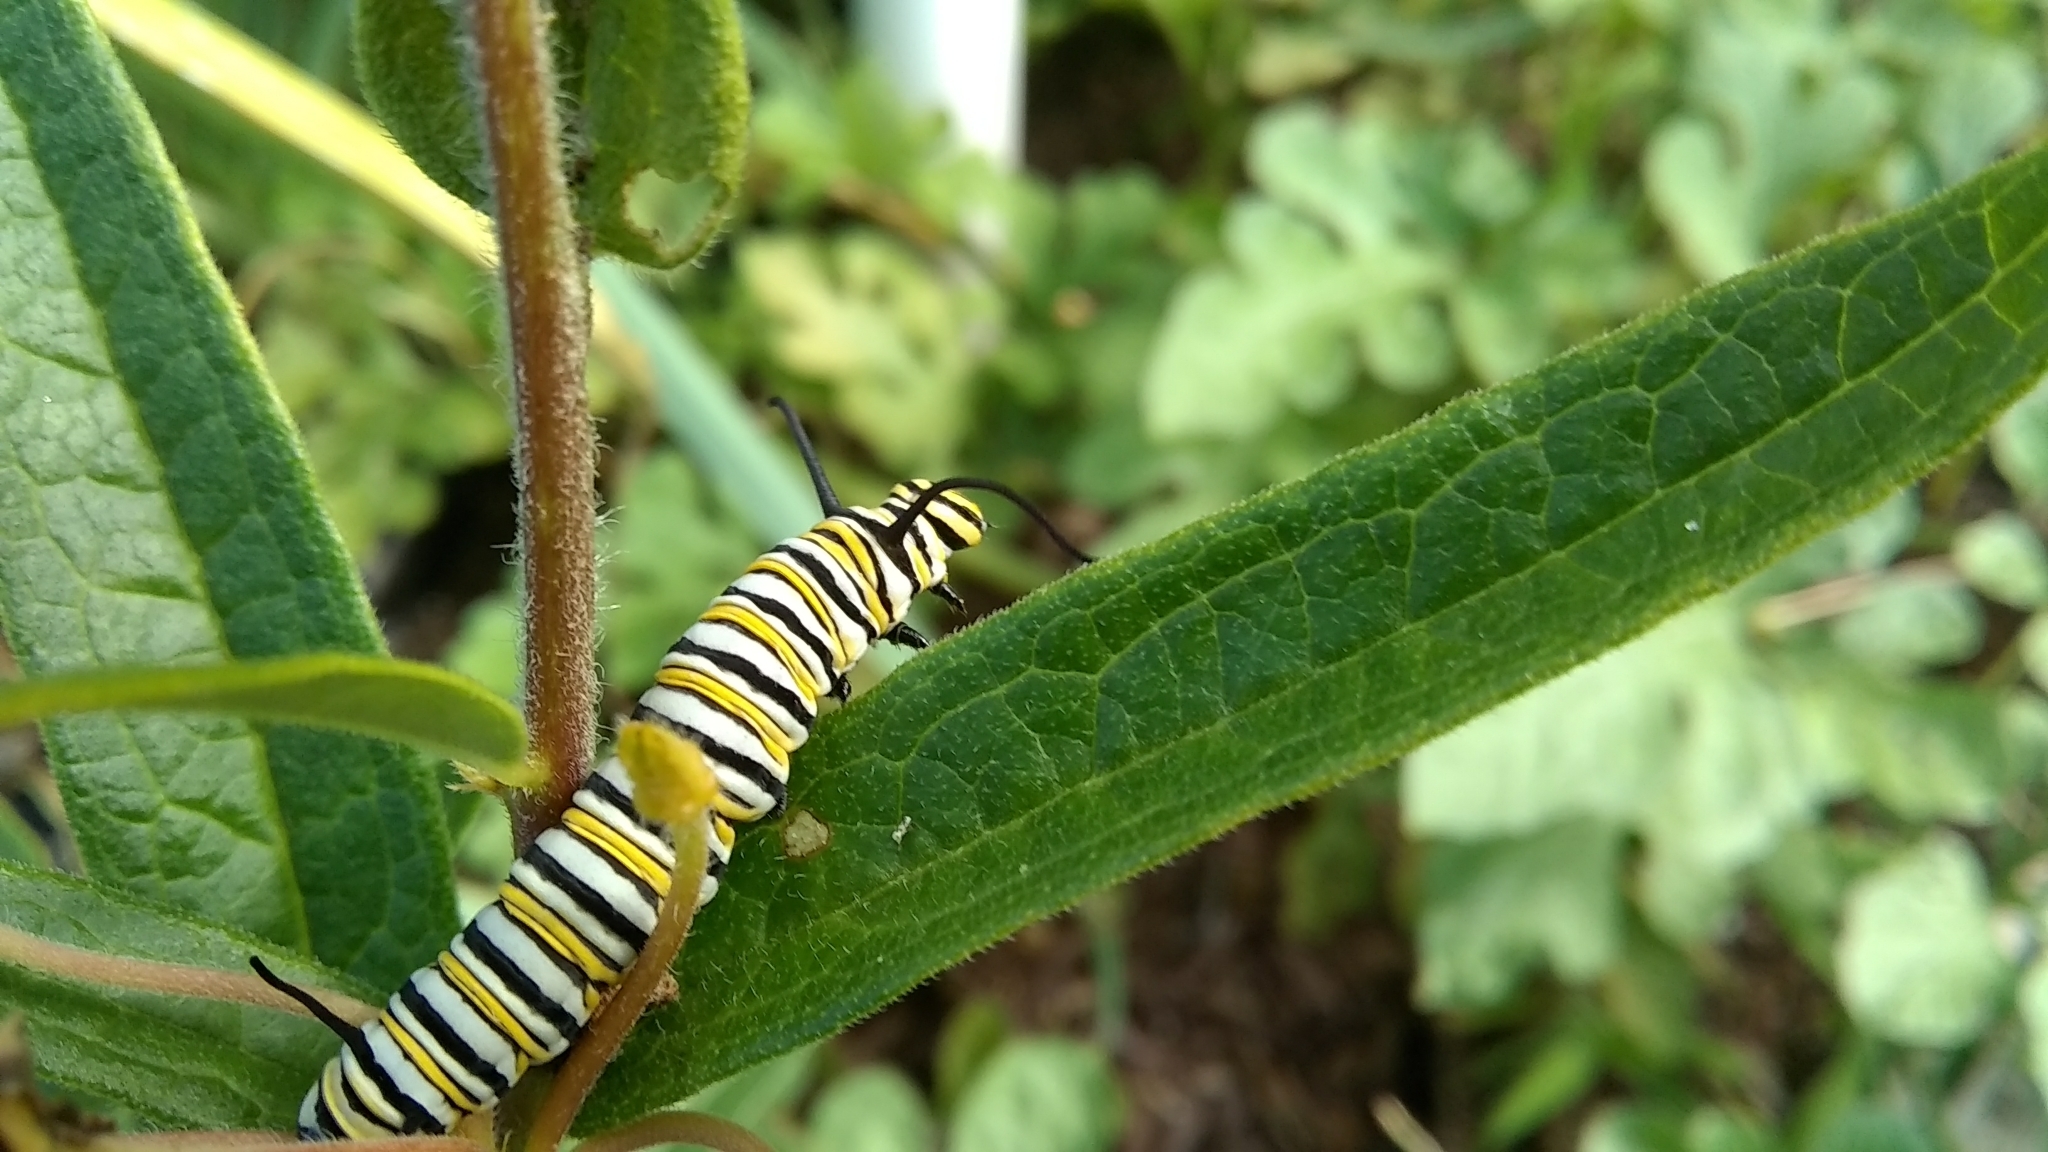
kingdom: Animalia
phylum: Arthropoda
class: Insecta
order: Lepidoptera
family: Nymphalidae
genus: Danaus
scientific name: Danaus plexippus
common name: Monarch
